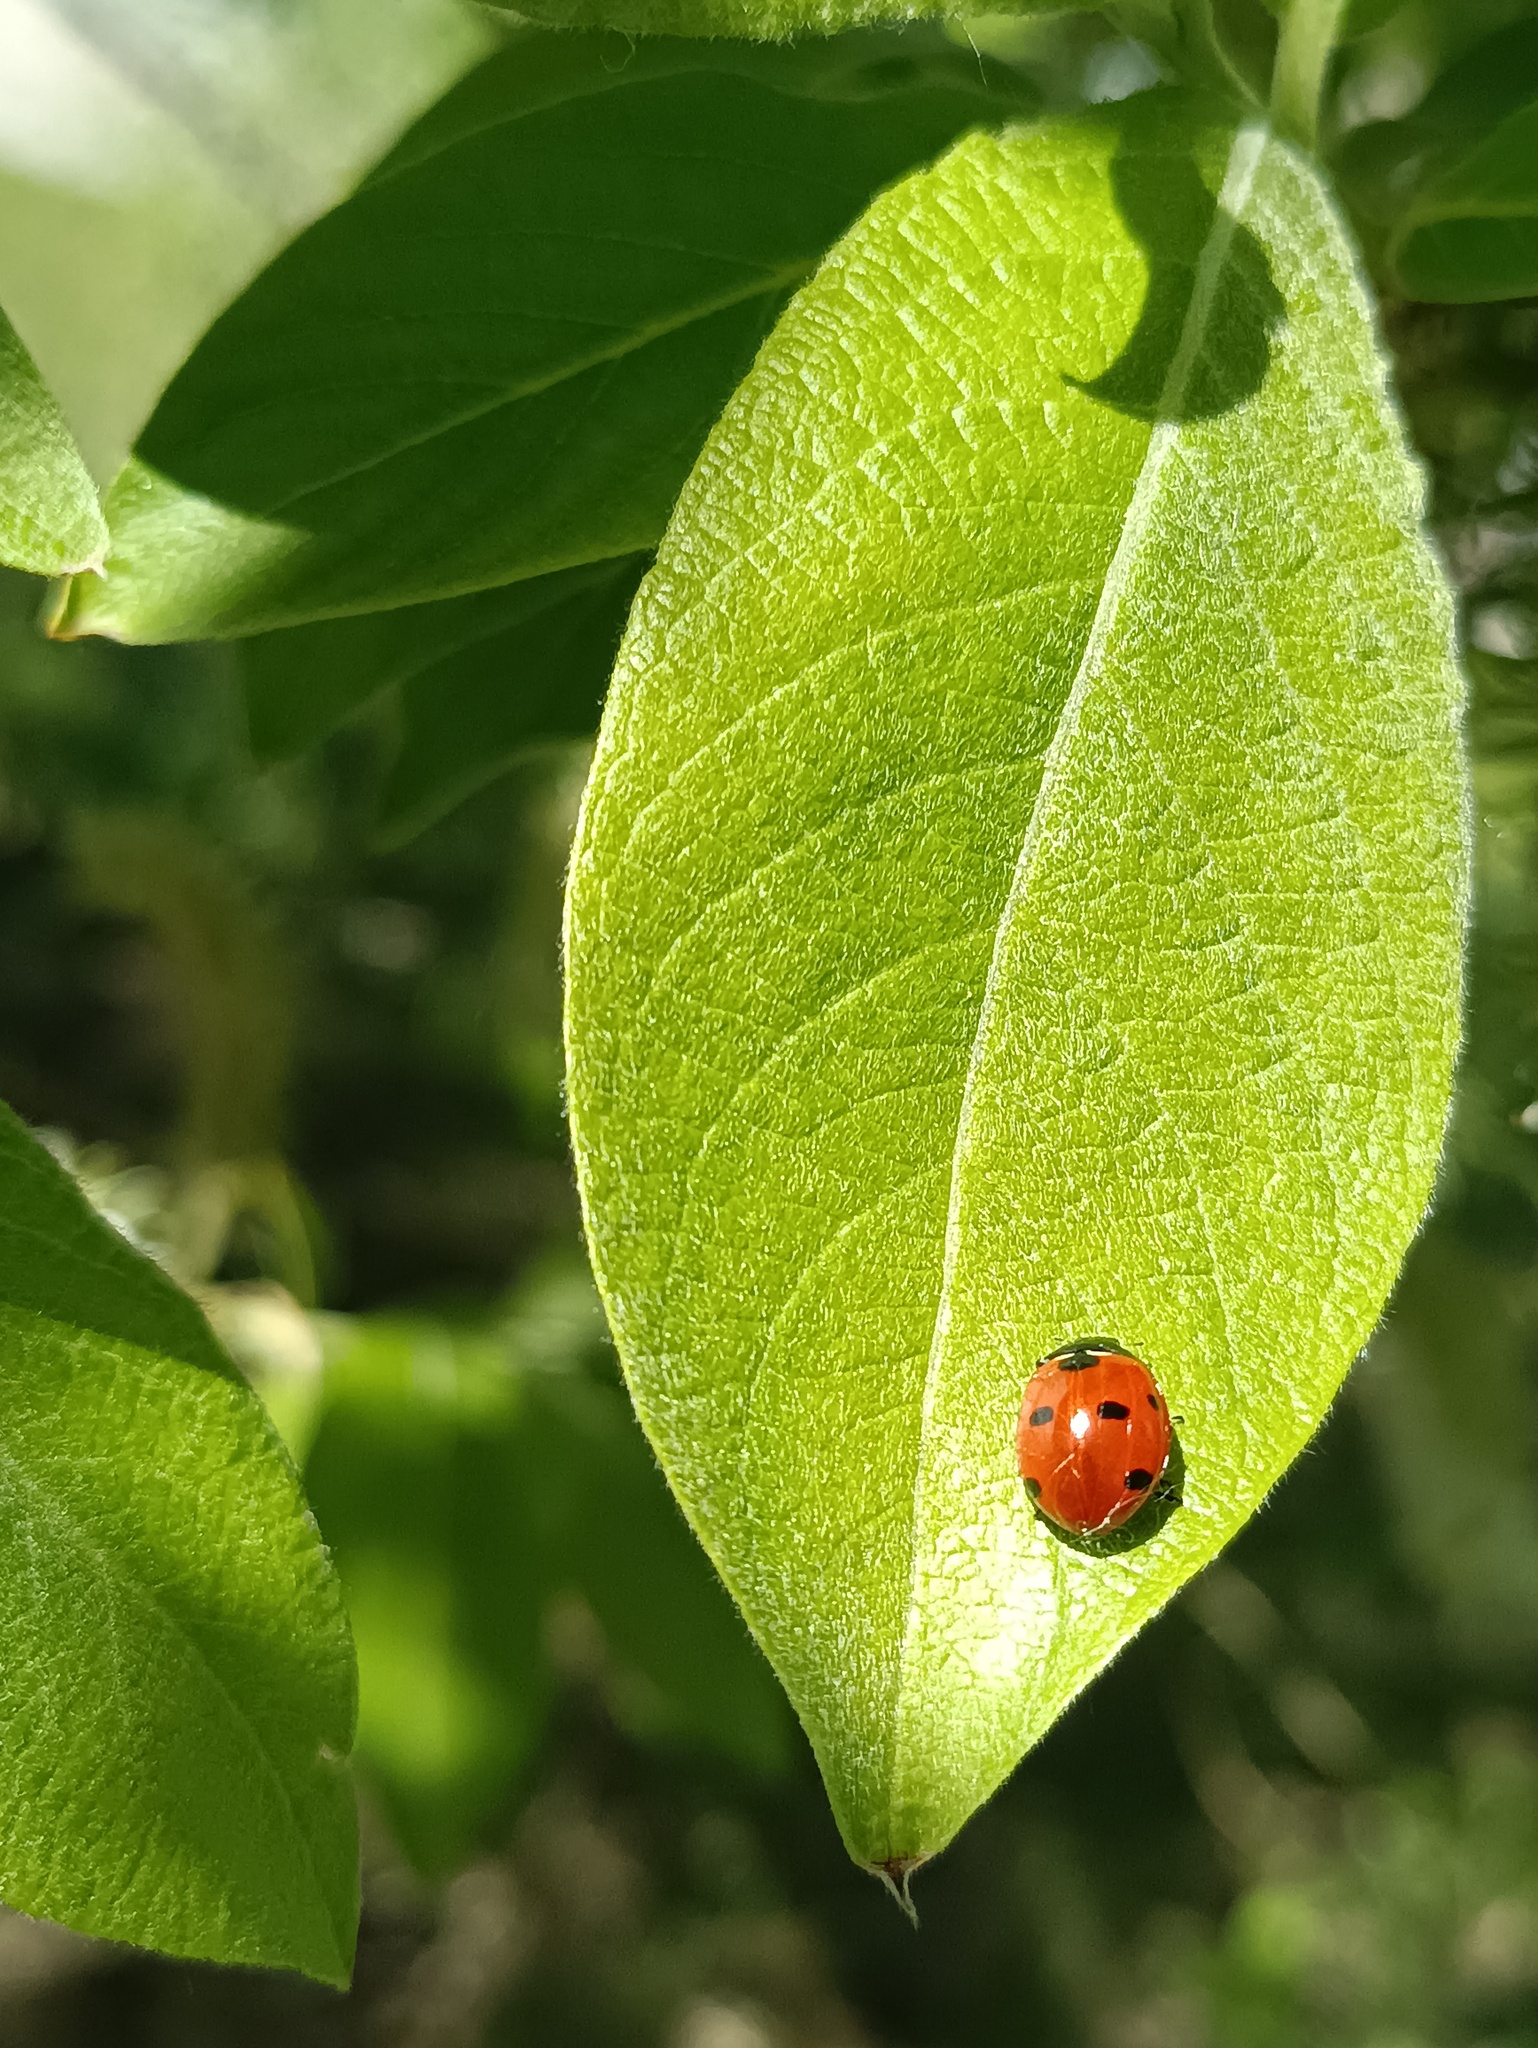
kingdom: Animalia
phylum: Arthropoda
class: Insecta
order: Coleoptera
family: Coccinellidae
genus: Coccinella
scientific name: Coccinella septempunctata
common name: Sevenspotted lady beetle
